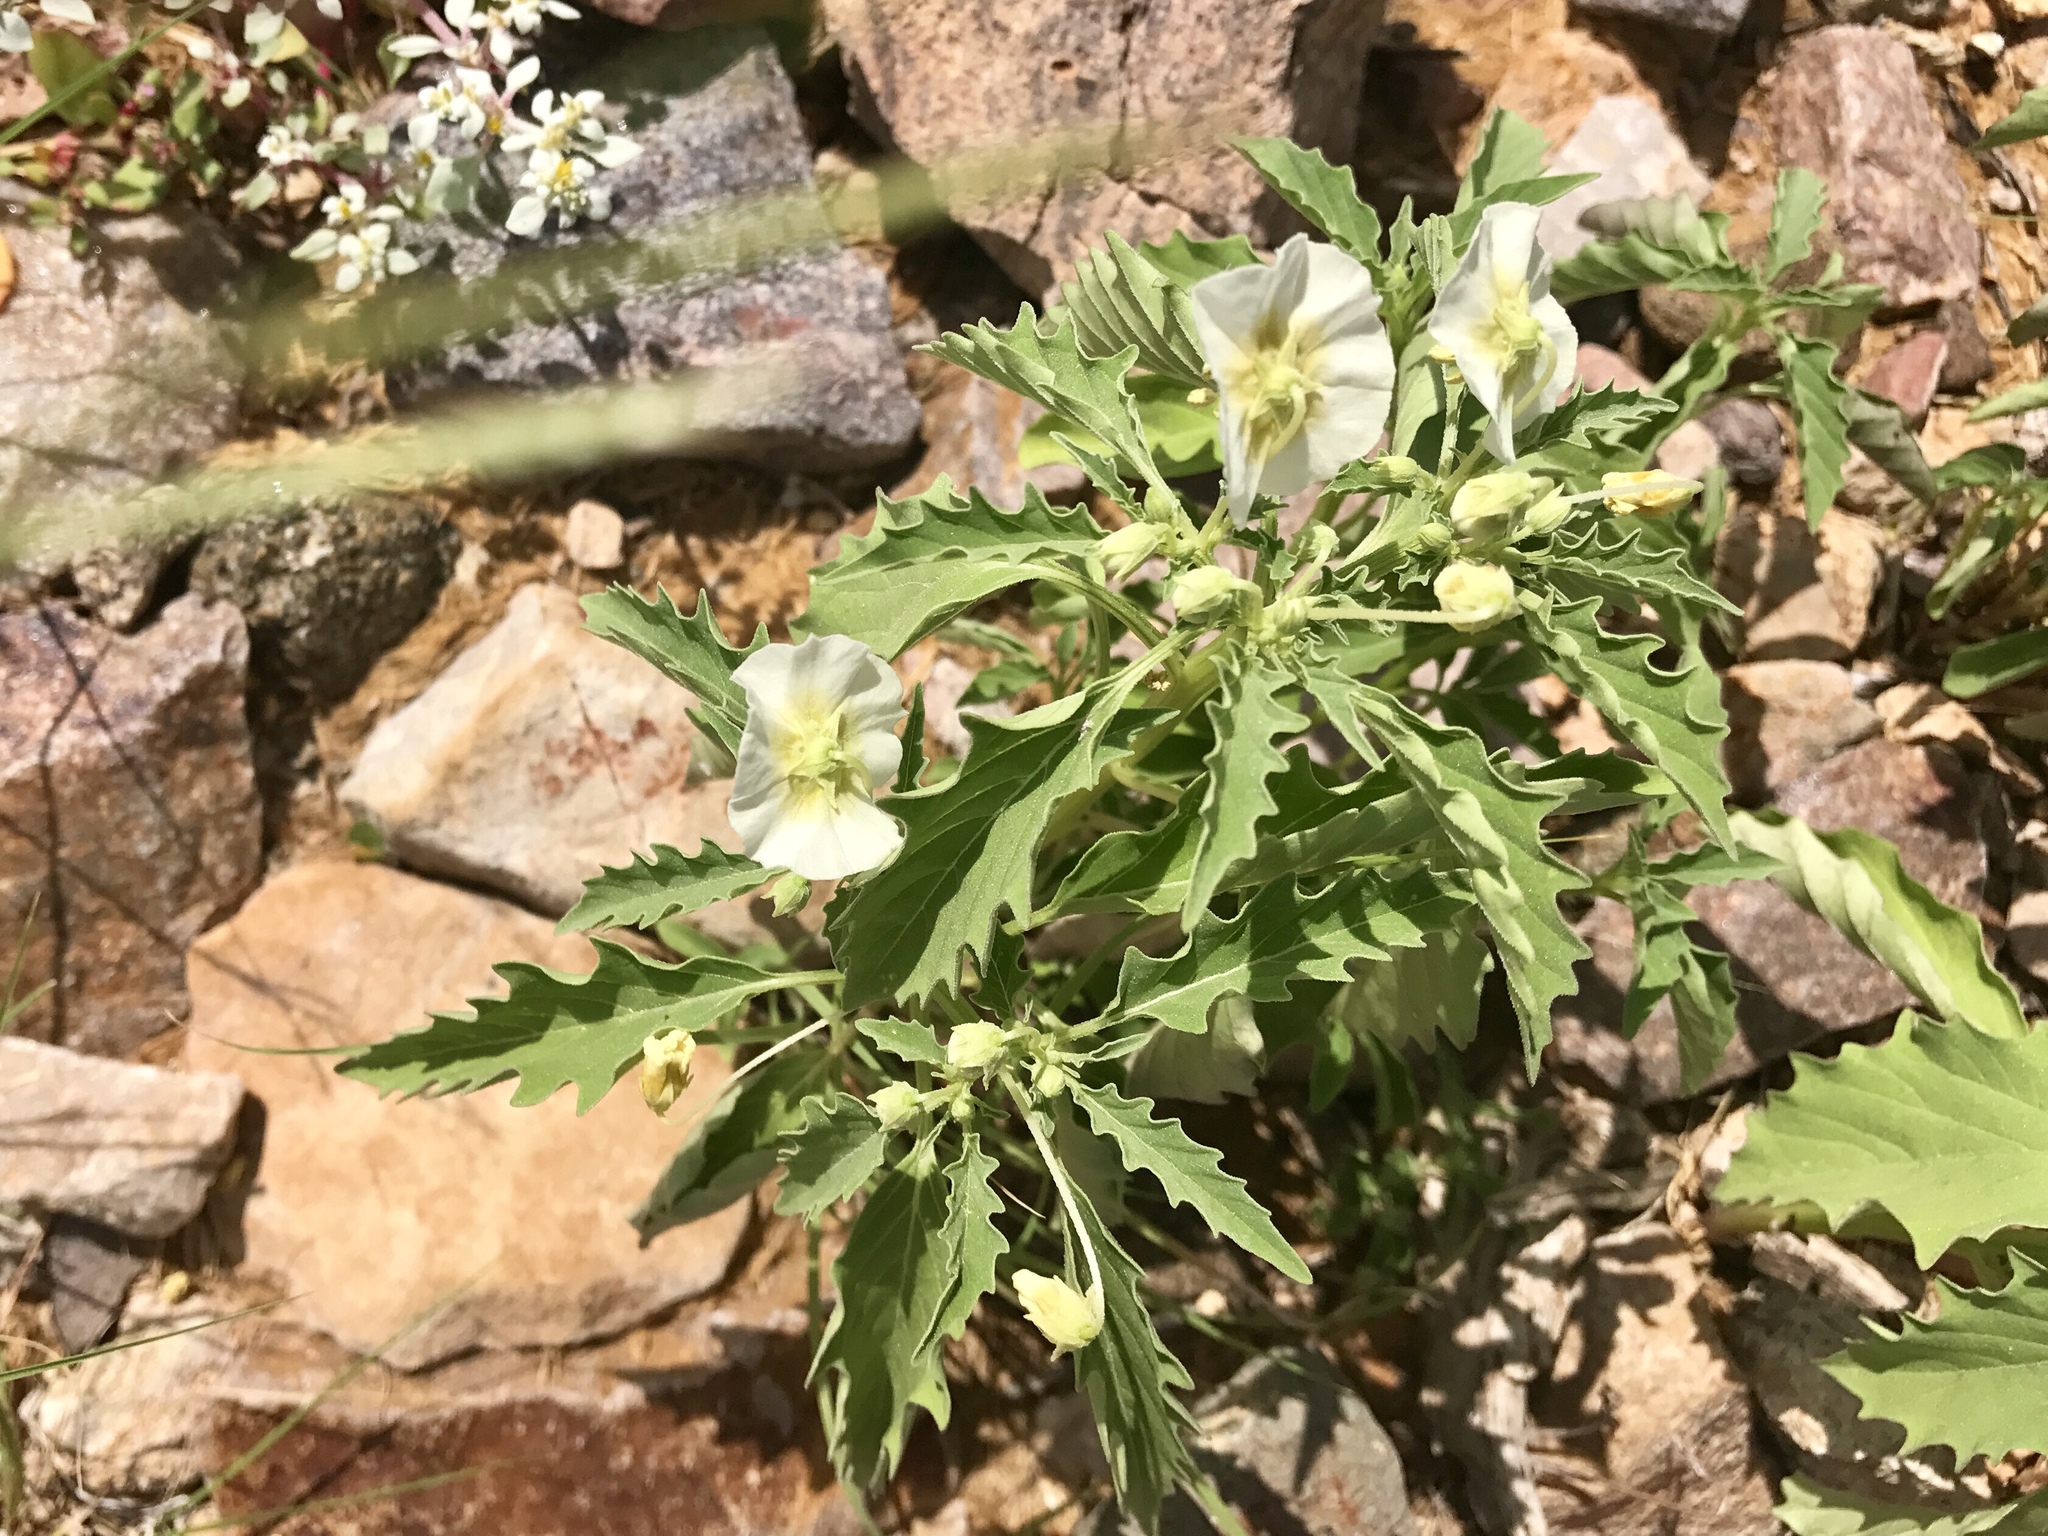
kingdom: Plantae
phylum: Tracheophyta
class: Magnoliopsida
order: Solanales
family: Solanaceae
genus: Physalis
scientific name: Physalis acutifolia
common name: Wright's ground-cherry
